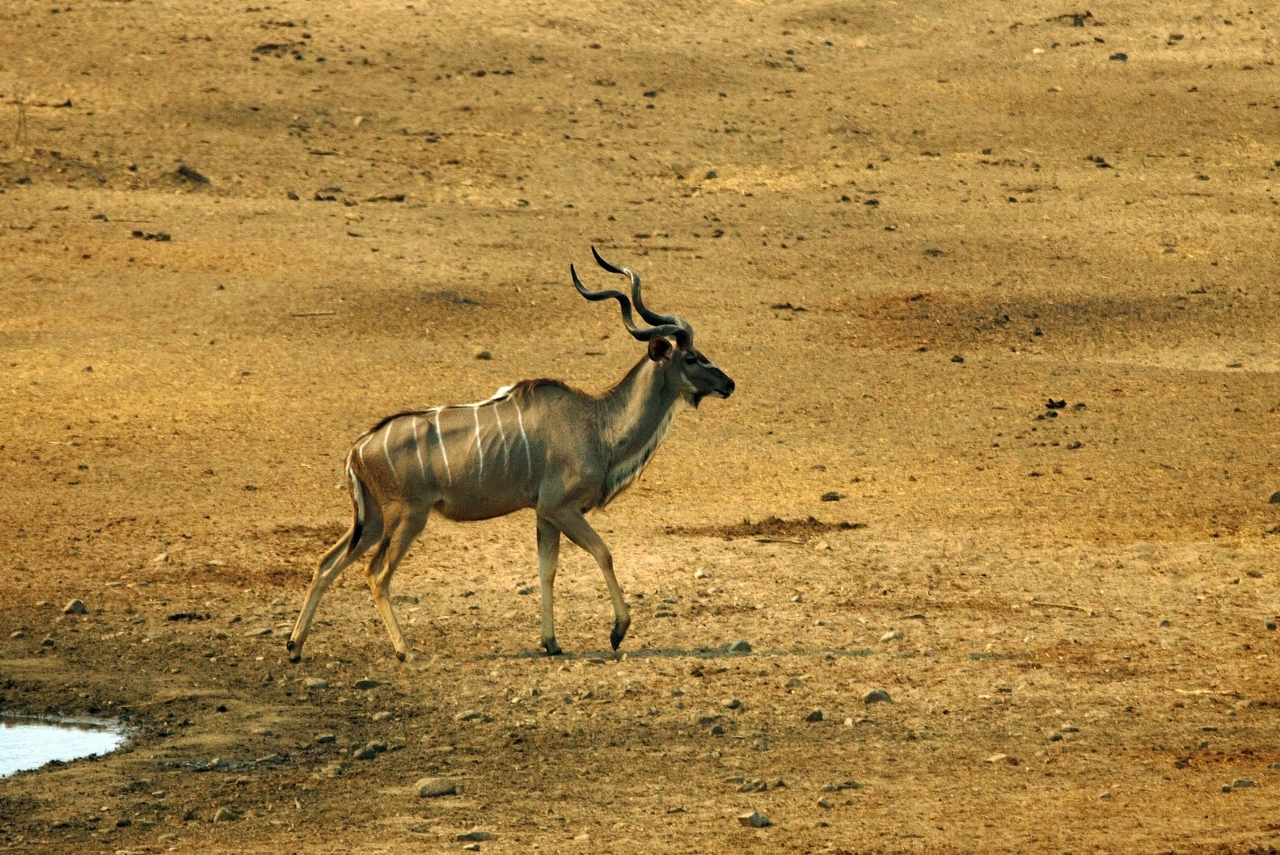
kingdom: Animalia
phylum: Chordata
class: Mammalia
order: Artiodactyla
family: Bovidae
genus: Tragelaphus
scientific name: Tragelaphus strepsiceros
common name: Greater kudu
